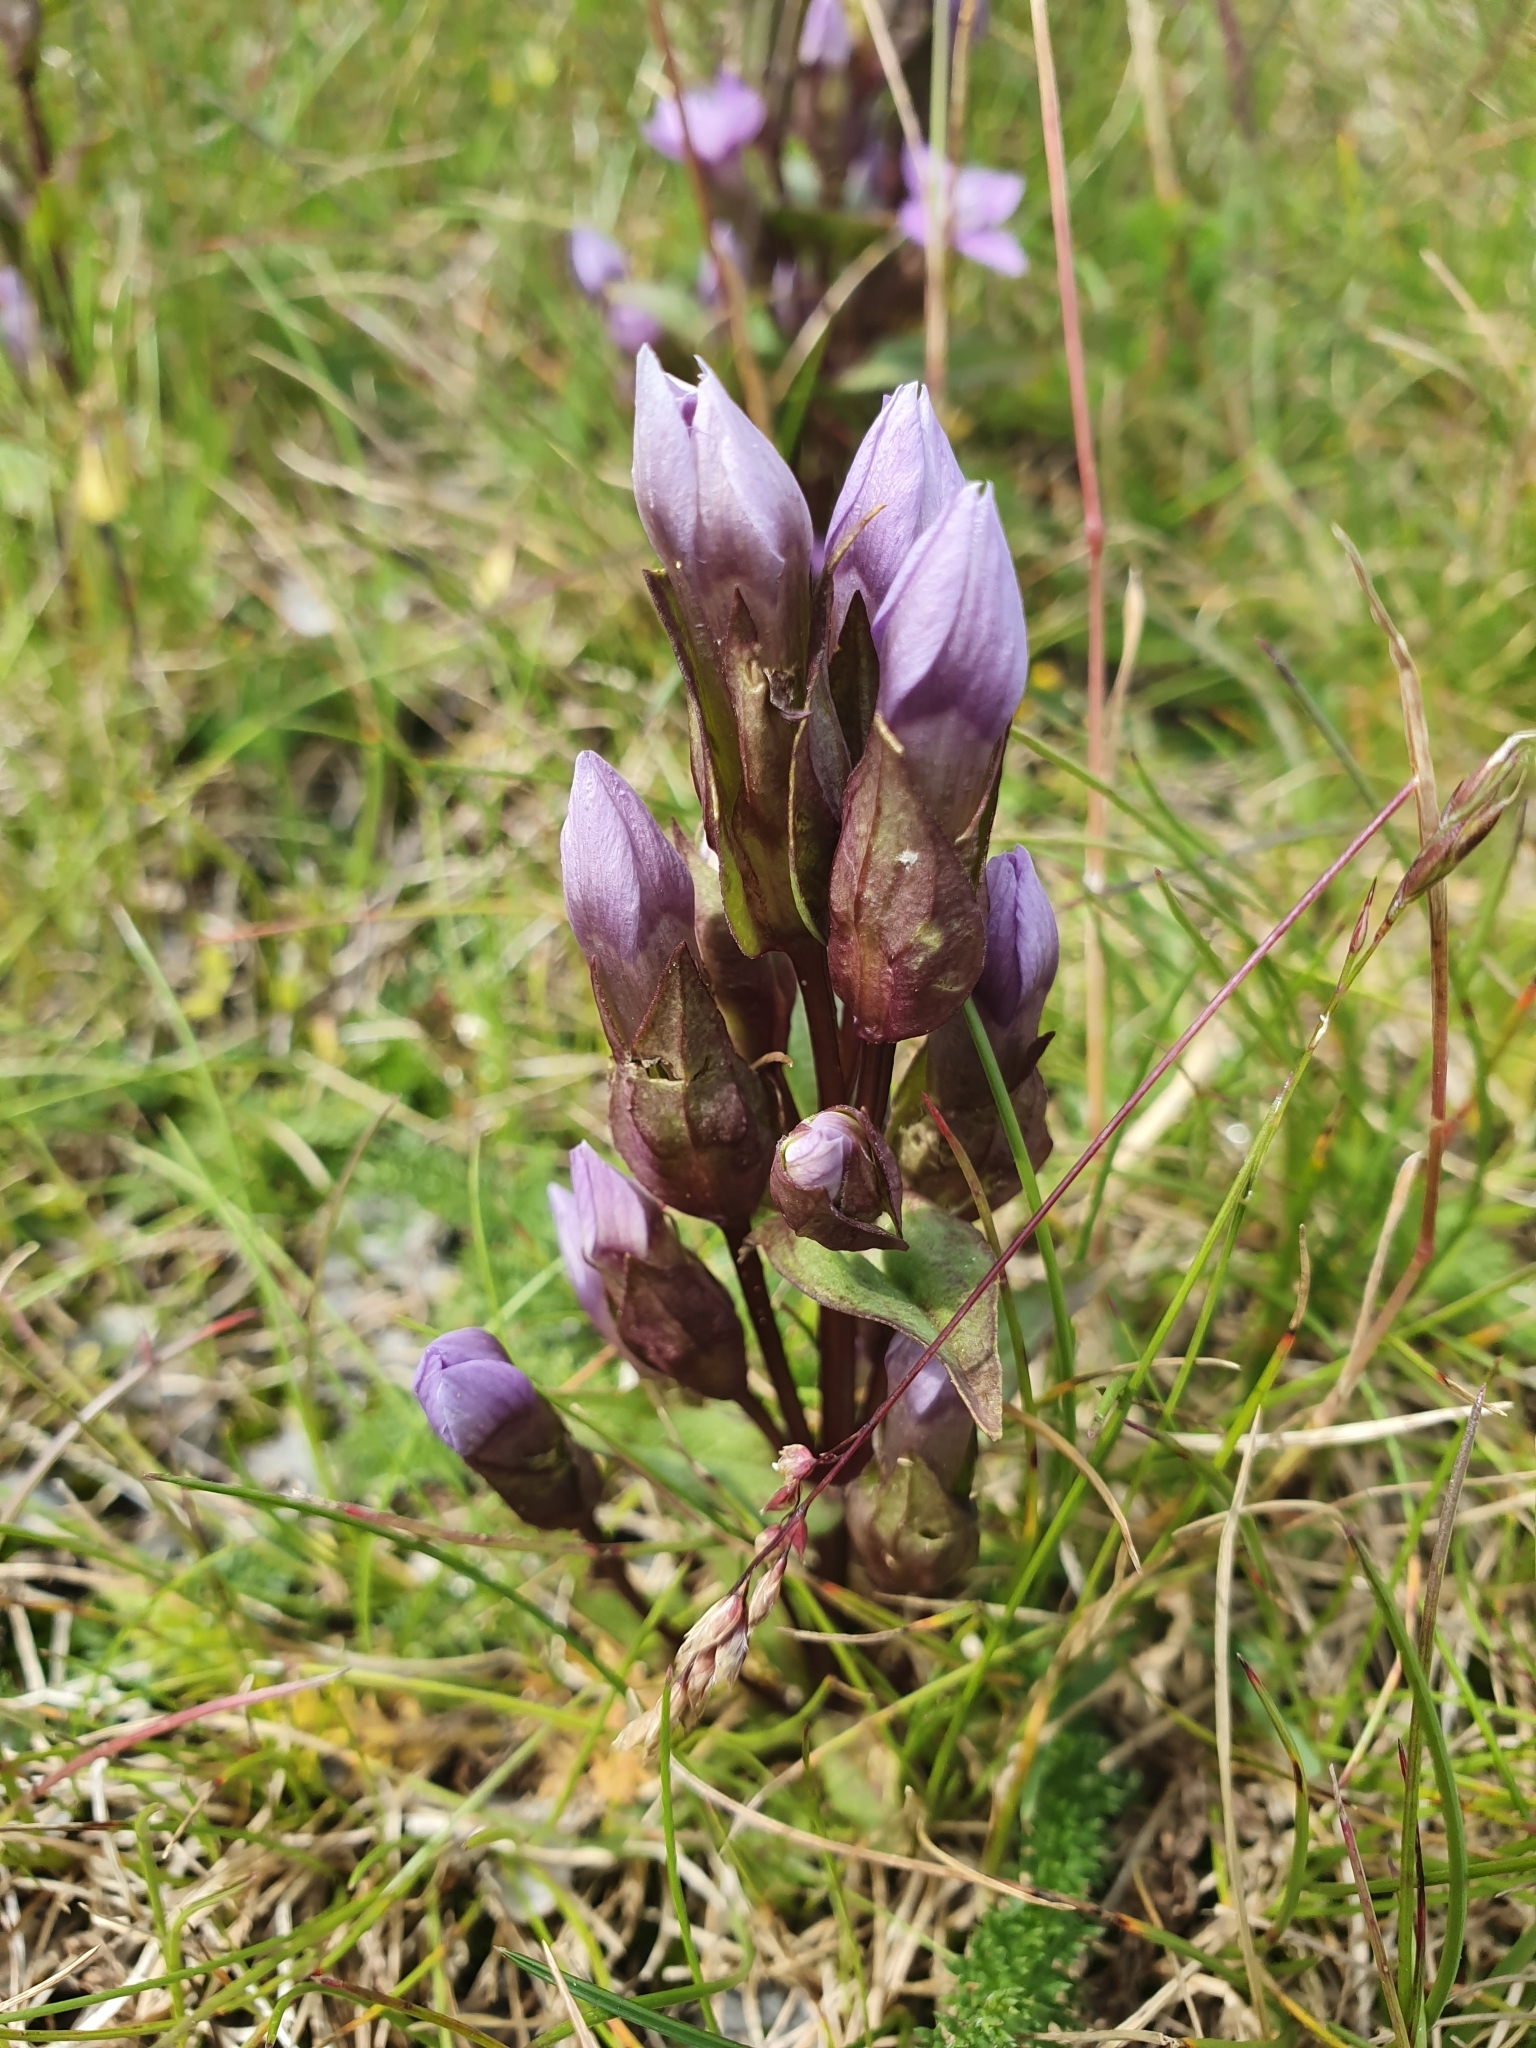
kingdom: Plantae
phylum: Tracheophyta
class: Magnoliopsida
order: Gentianales
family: Gentianaceae
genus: Gentianella
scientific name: Gentianella campestris
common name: Field gentian
